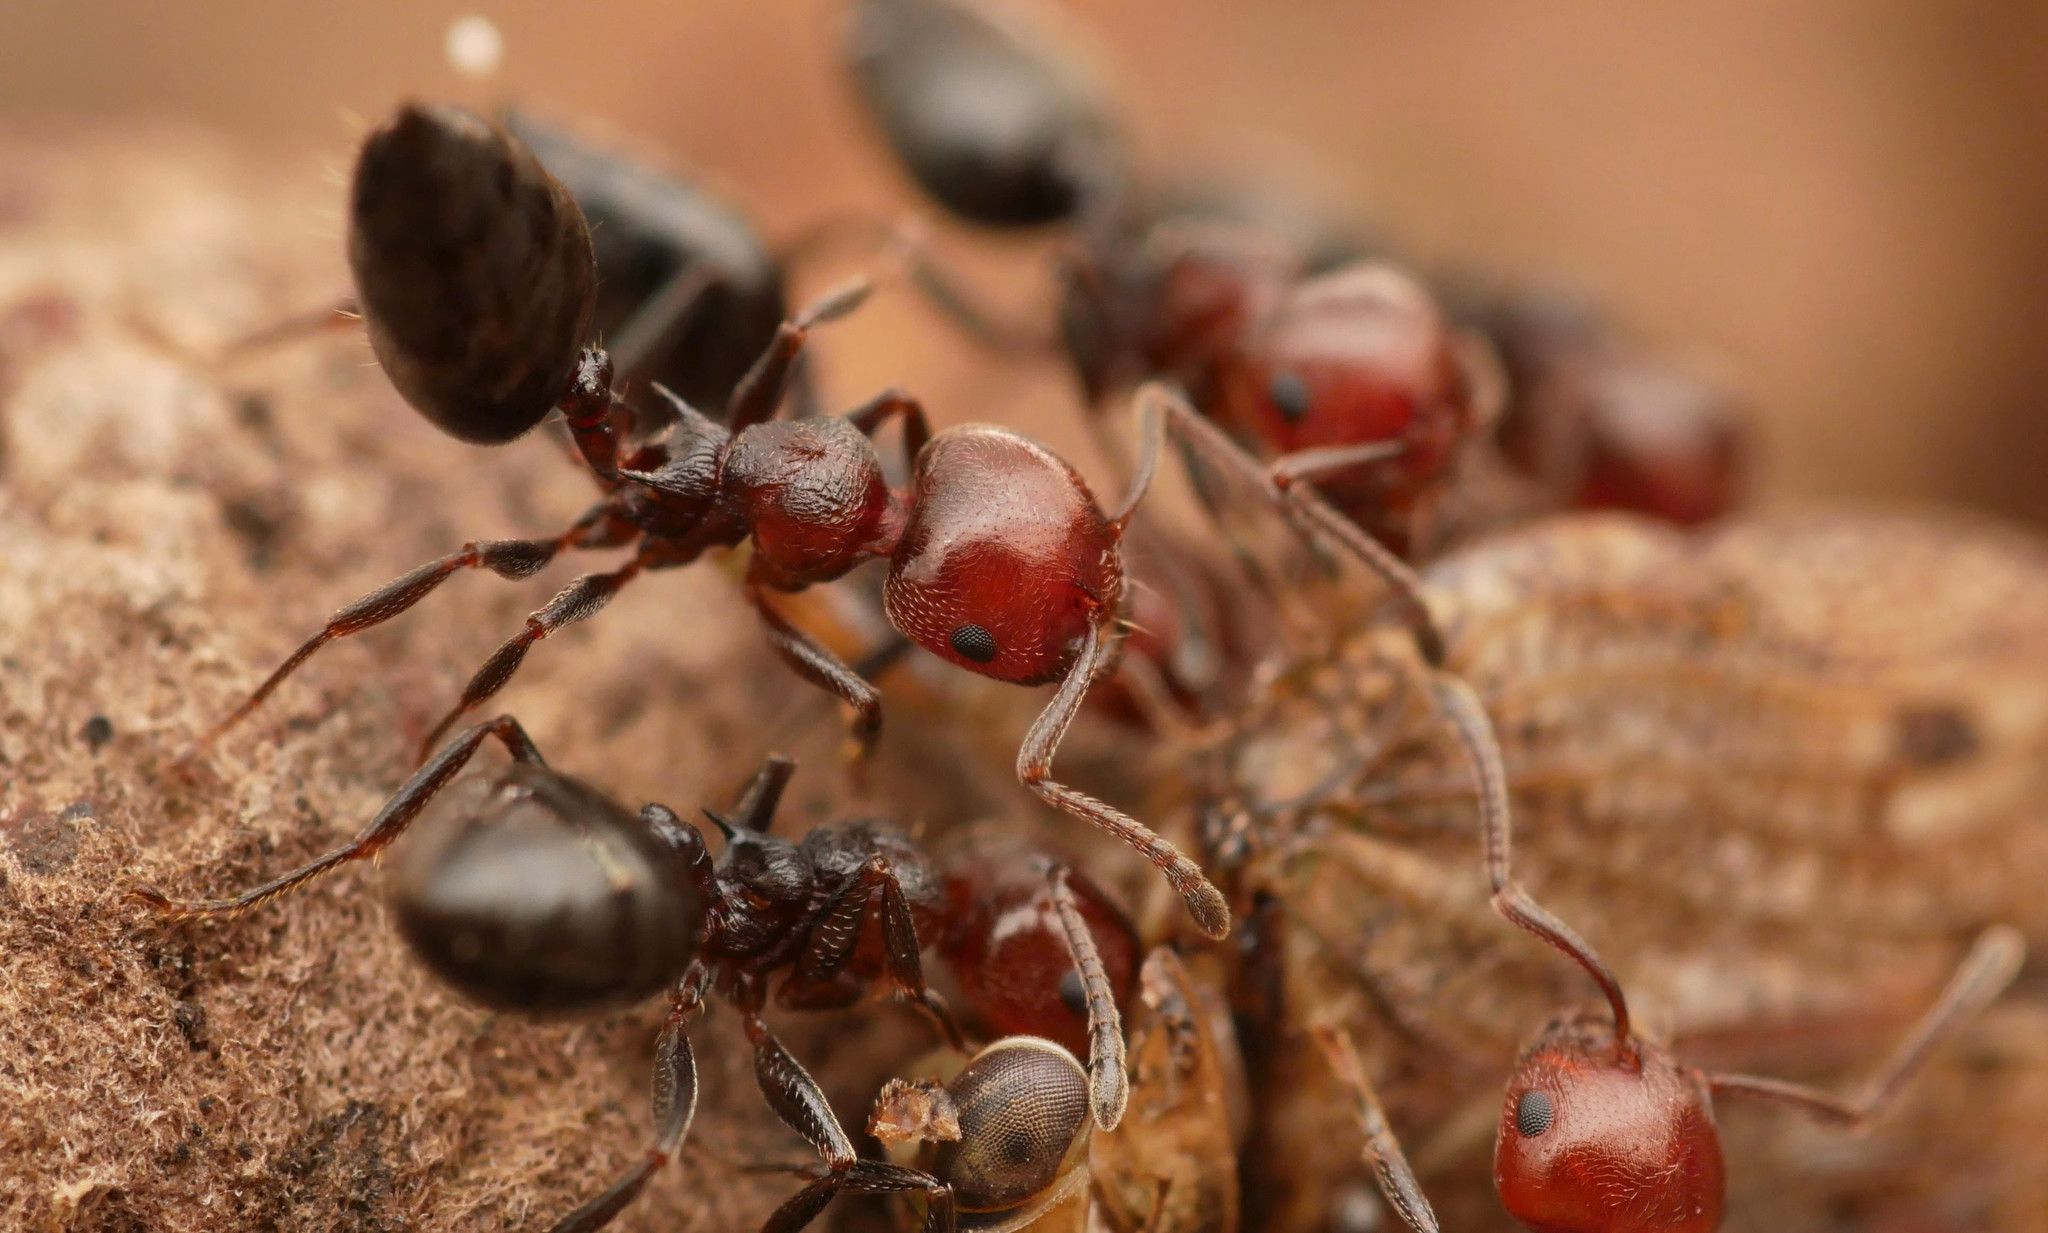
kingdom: Animalia
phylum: Arthropoda
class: Insecta
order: Hymenoptera
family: Formicidae
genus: Crematogaster
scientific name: Crematogaster scutellaris
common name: Fourmi du liège
